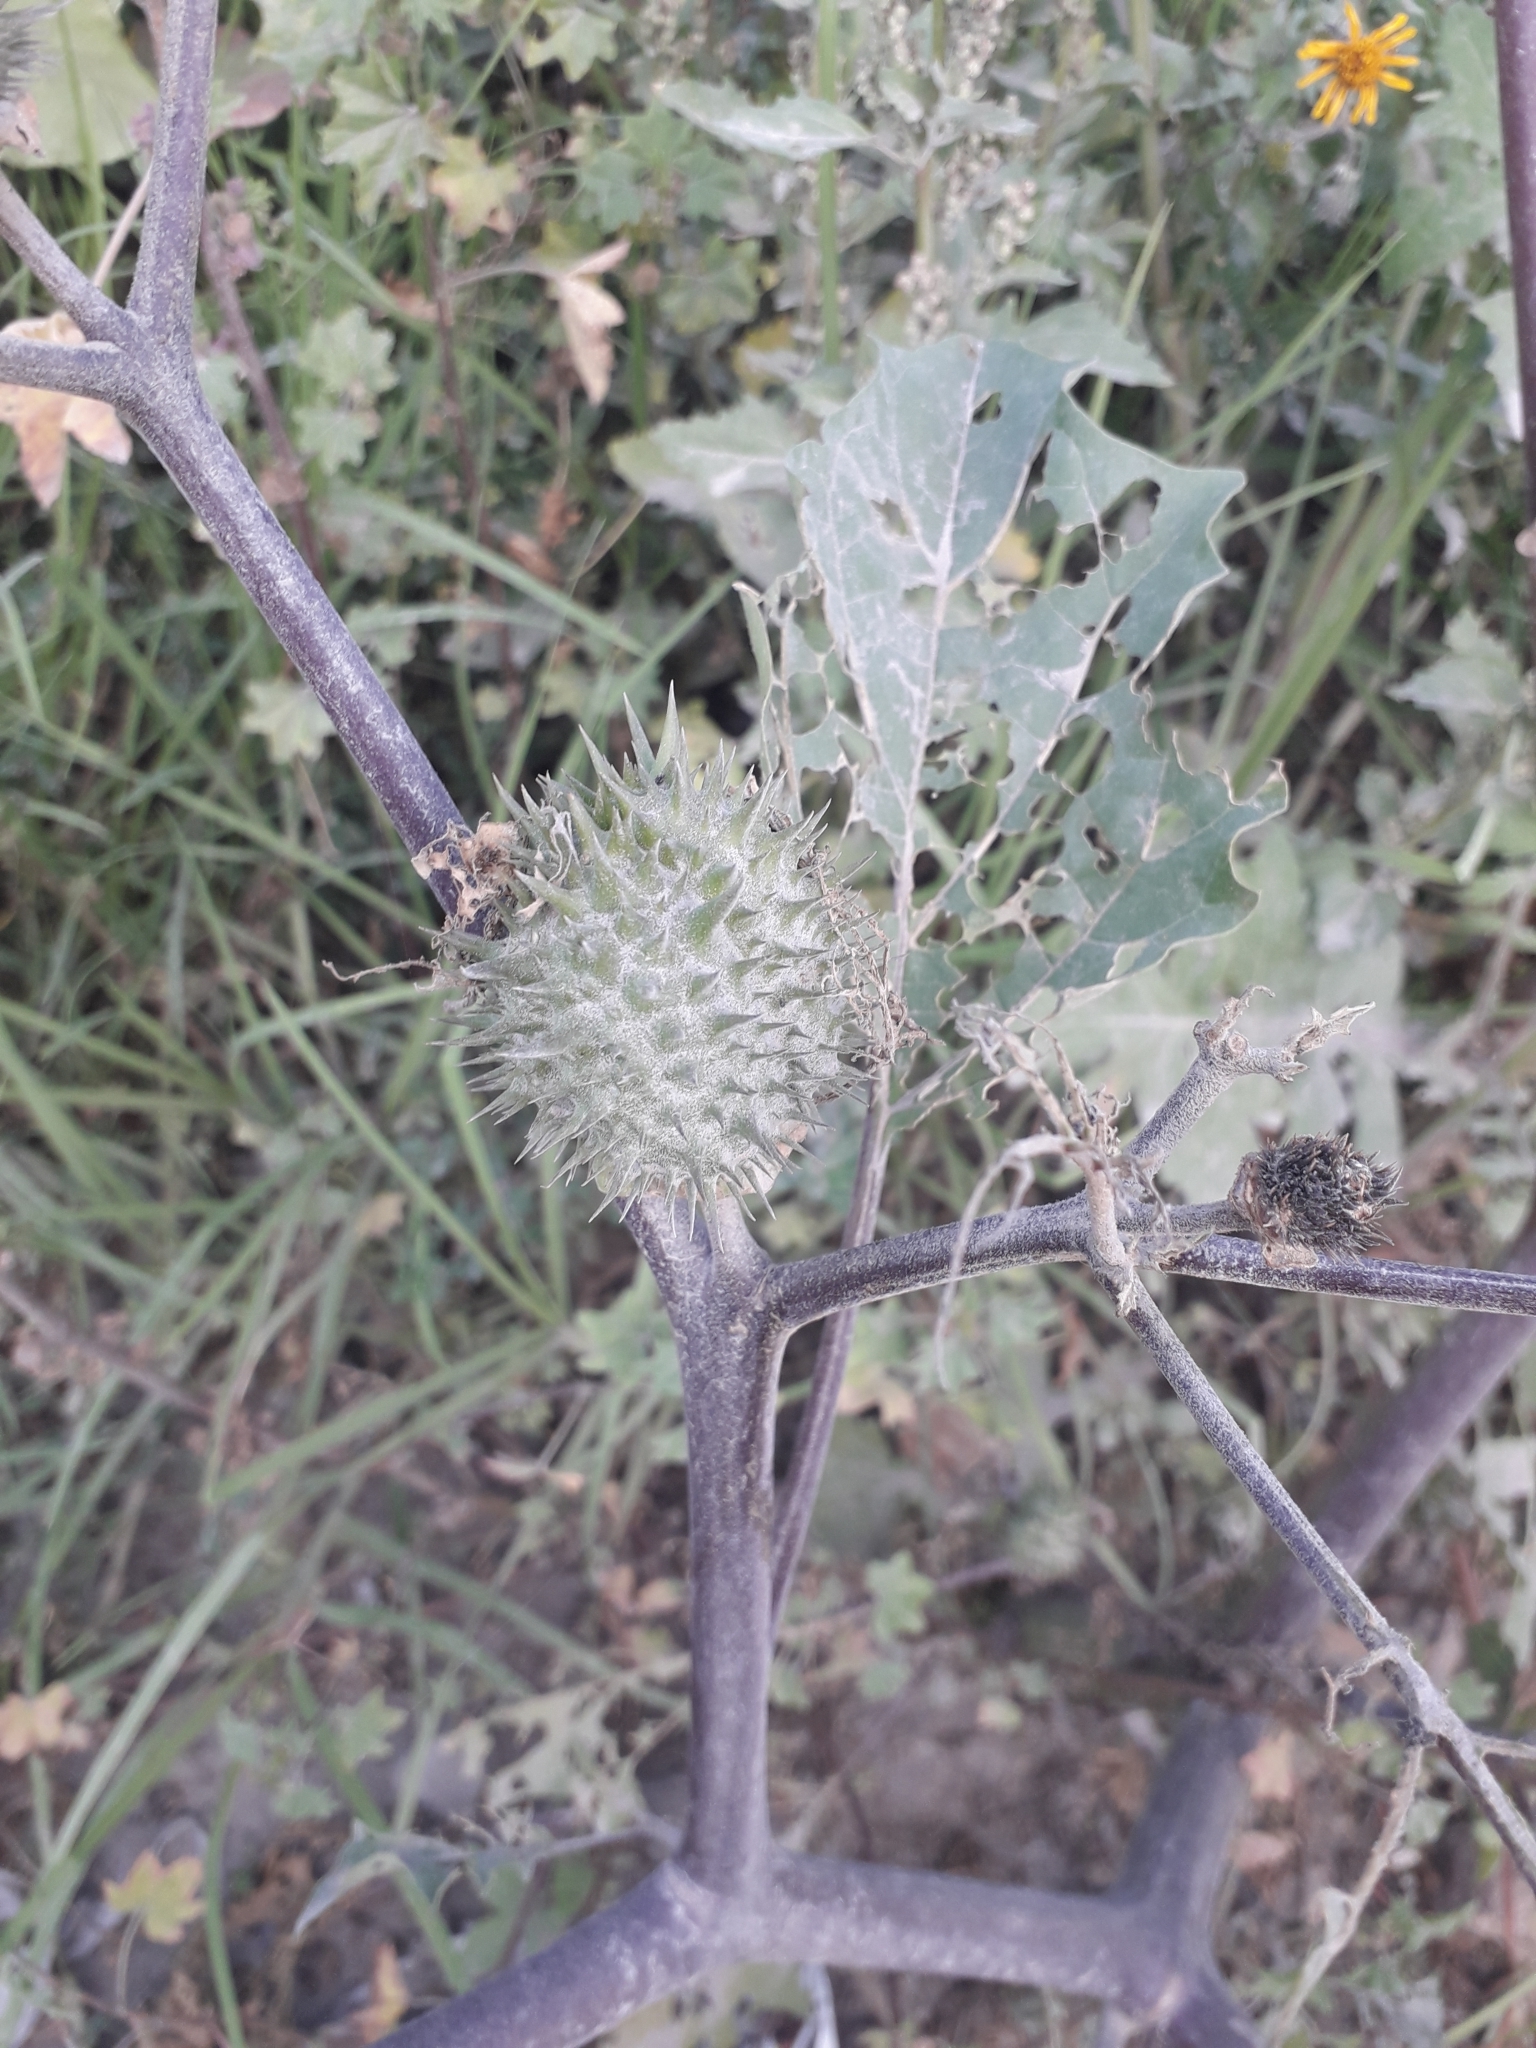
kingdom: Plantae
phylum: Tracheophyta
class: Magnoliopsida
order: Solanales
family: Solanaceae
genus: Datura
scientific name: Datura stramonium
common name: Thorn-apple
